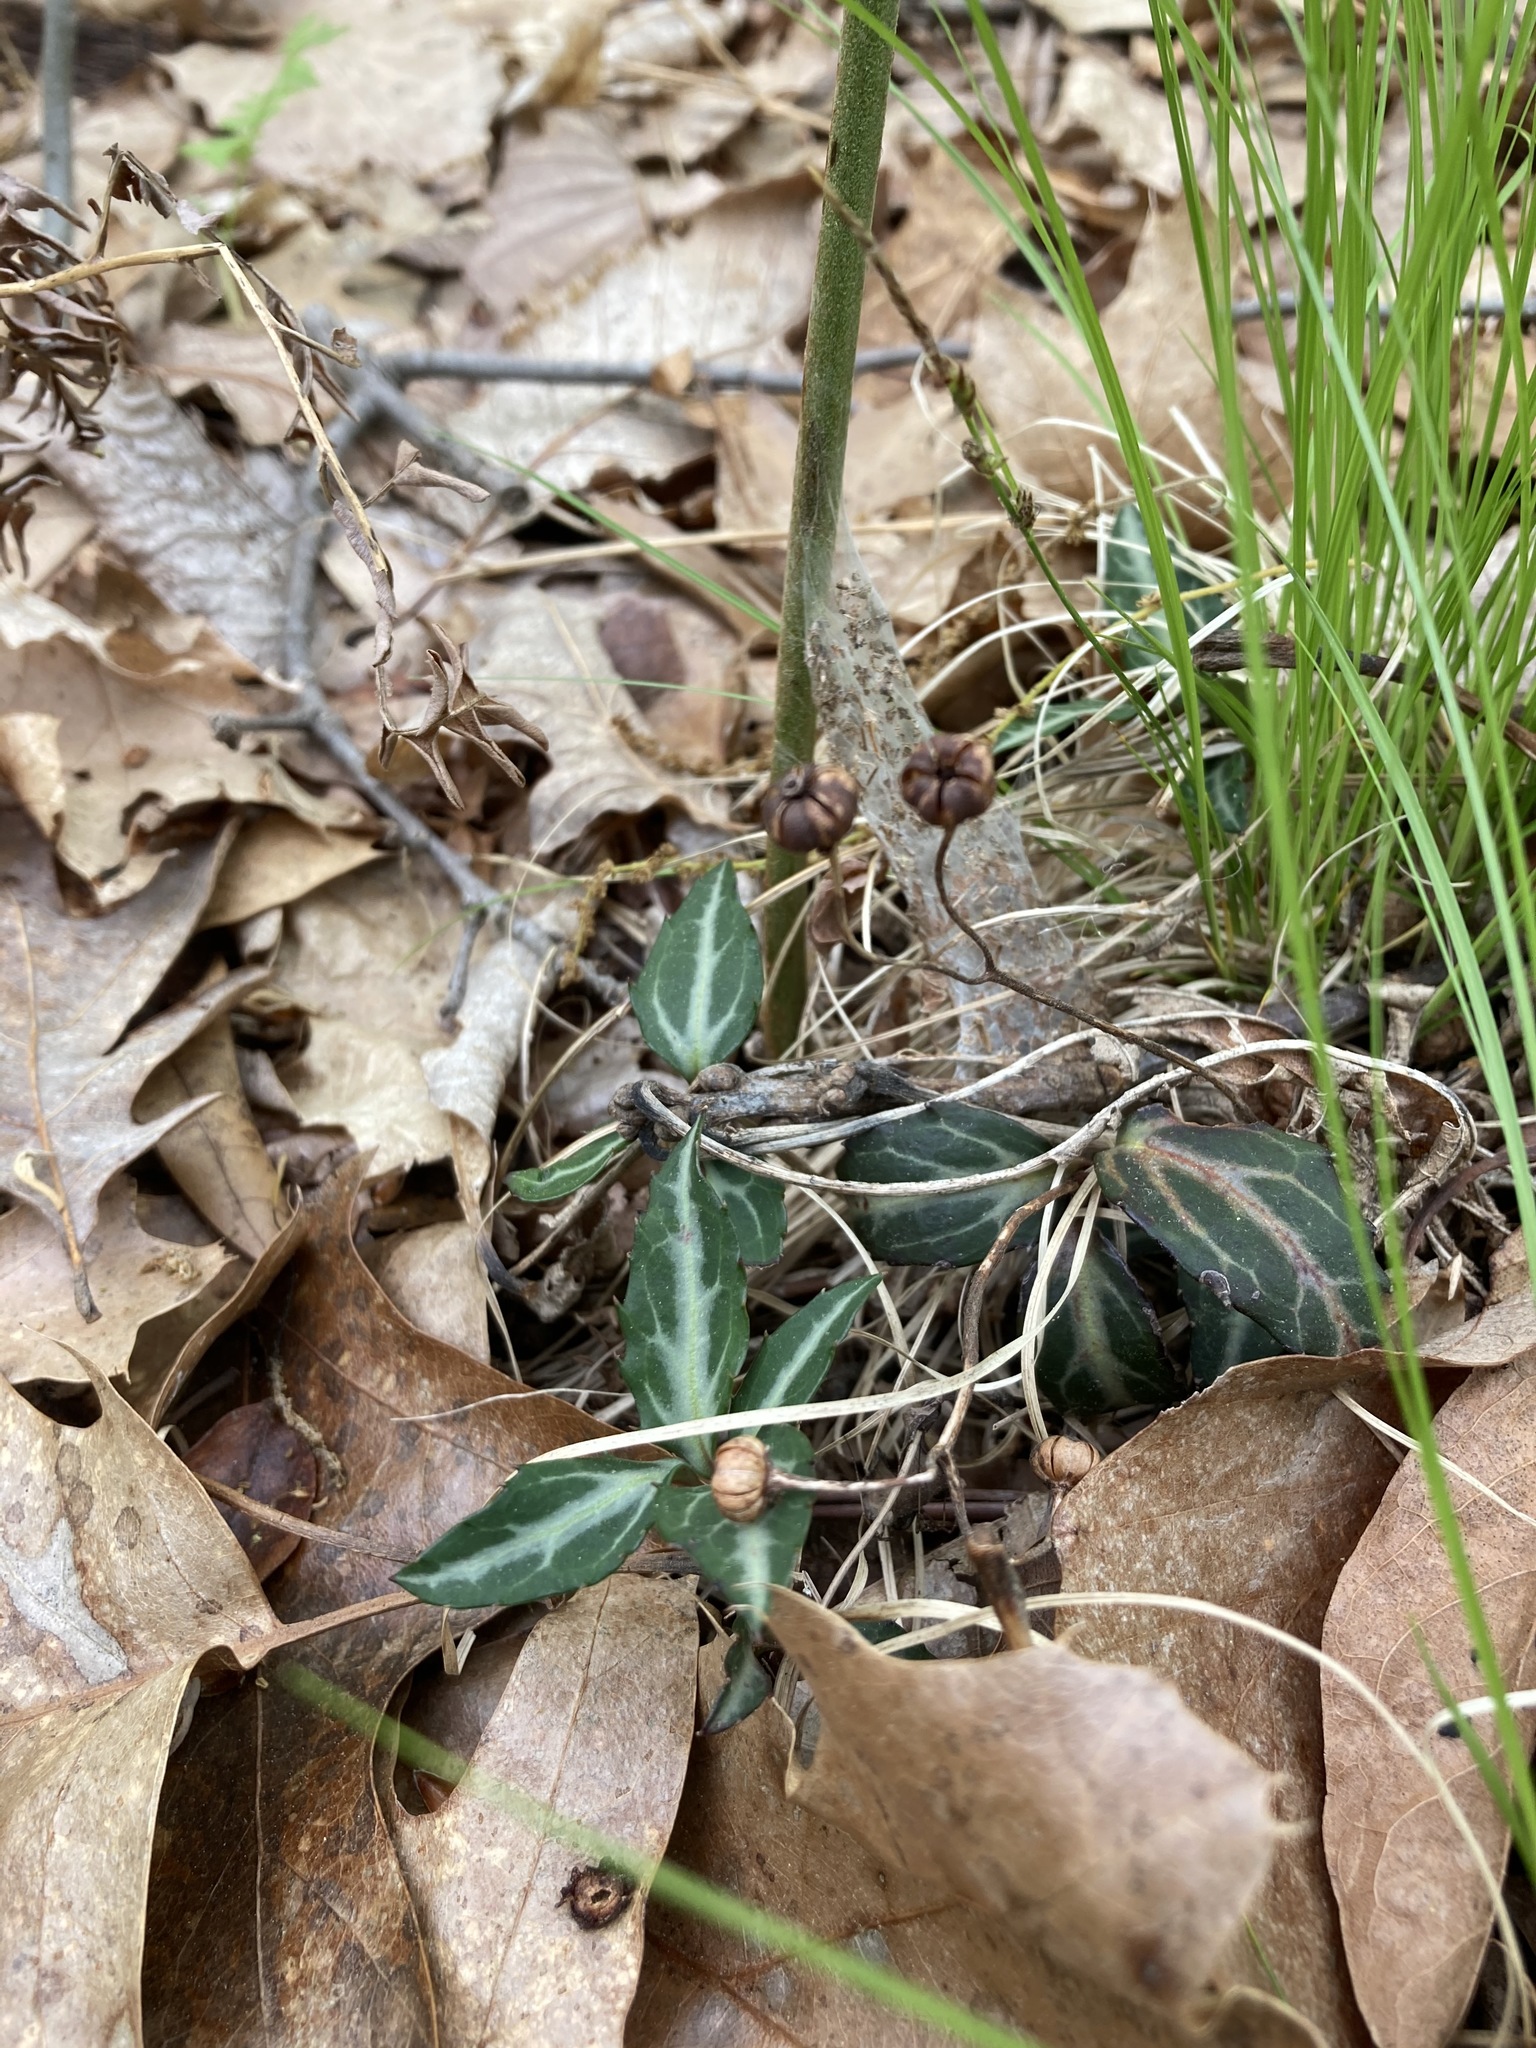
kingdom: Plantae
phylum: Tracheophyta
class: Magnoliopsida
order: Ericales
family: Ericaceae
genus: Chimaphila
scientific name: Chimaphila maculata
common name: Spotted pipsissewa
